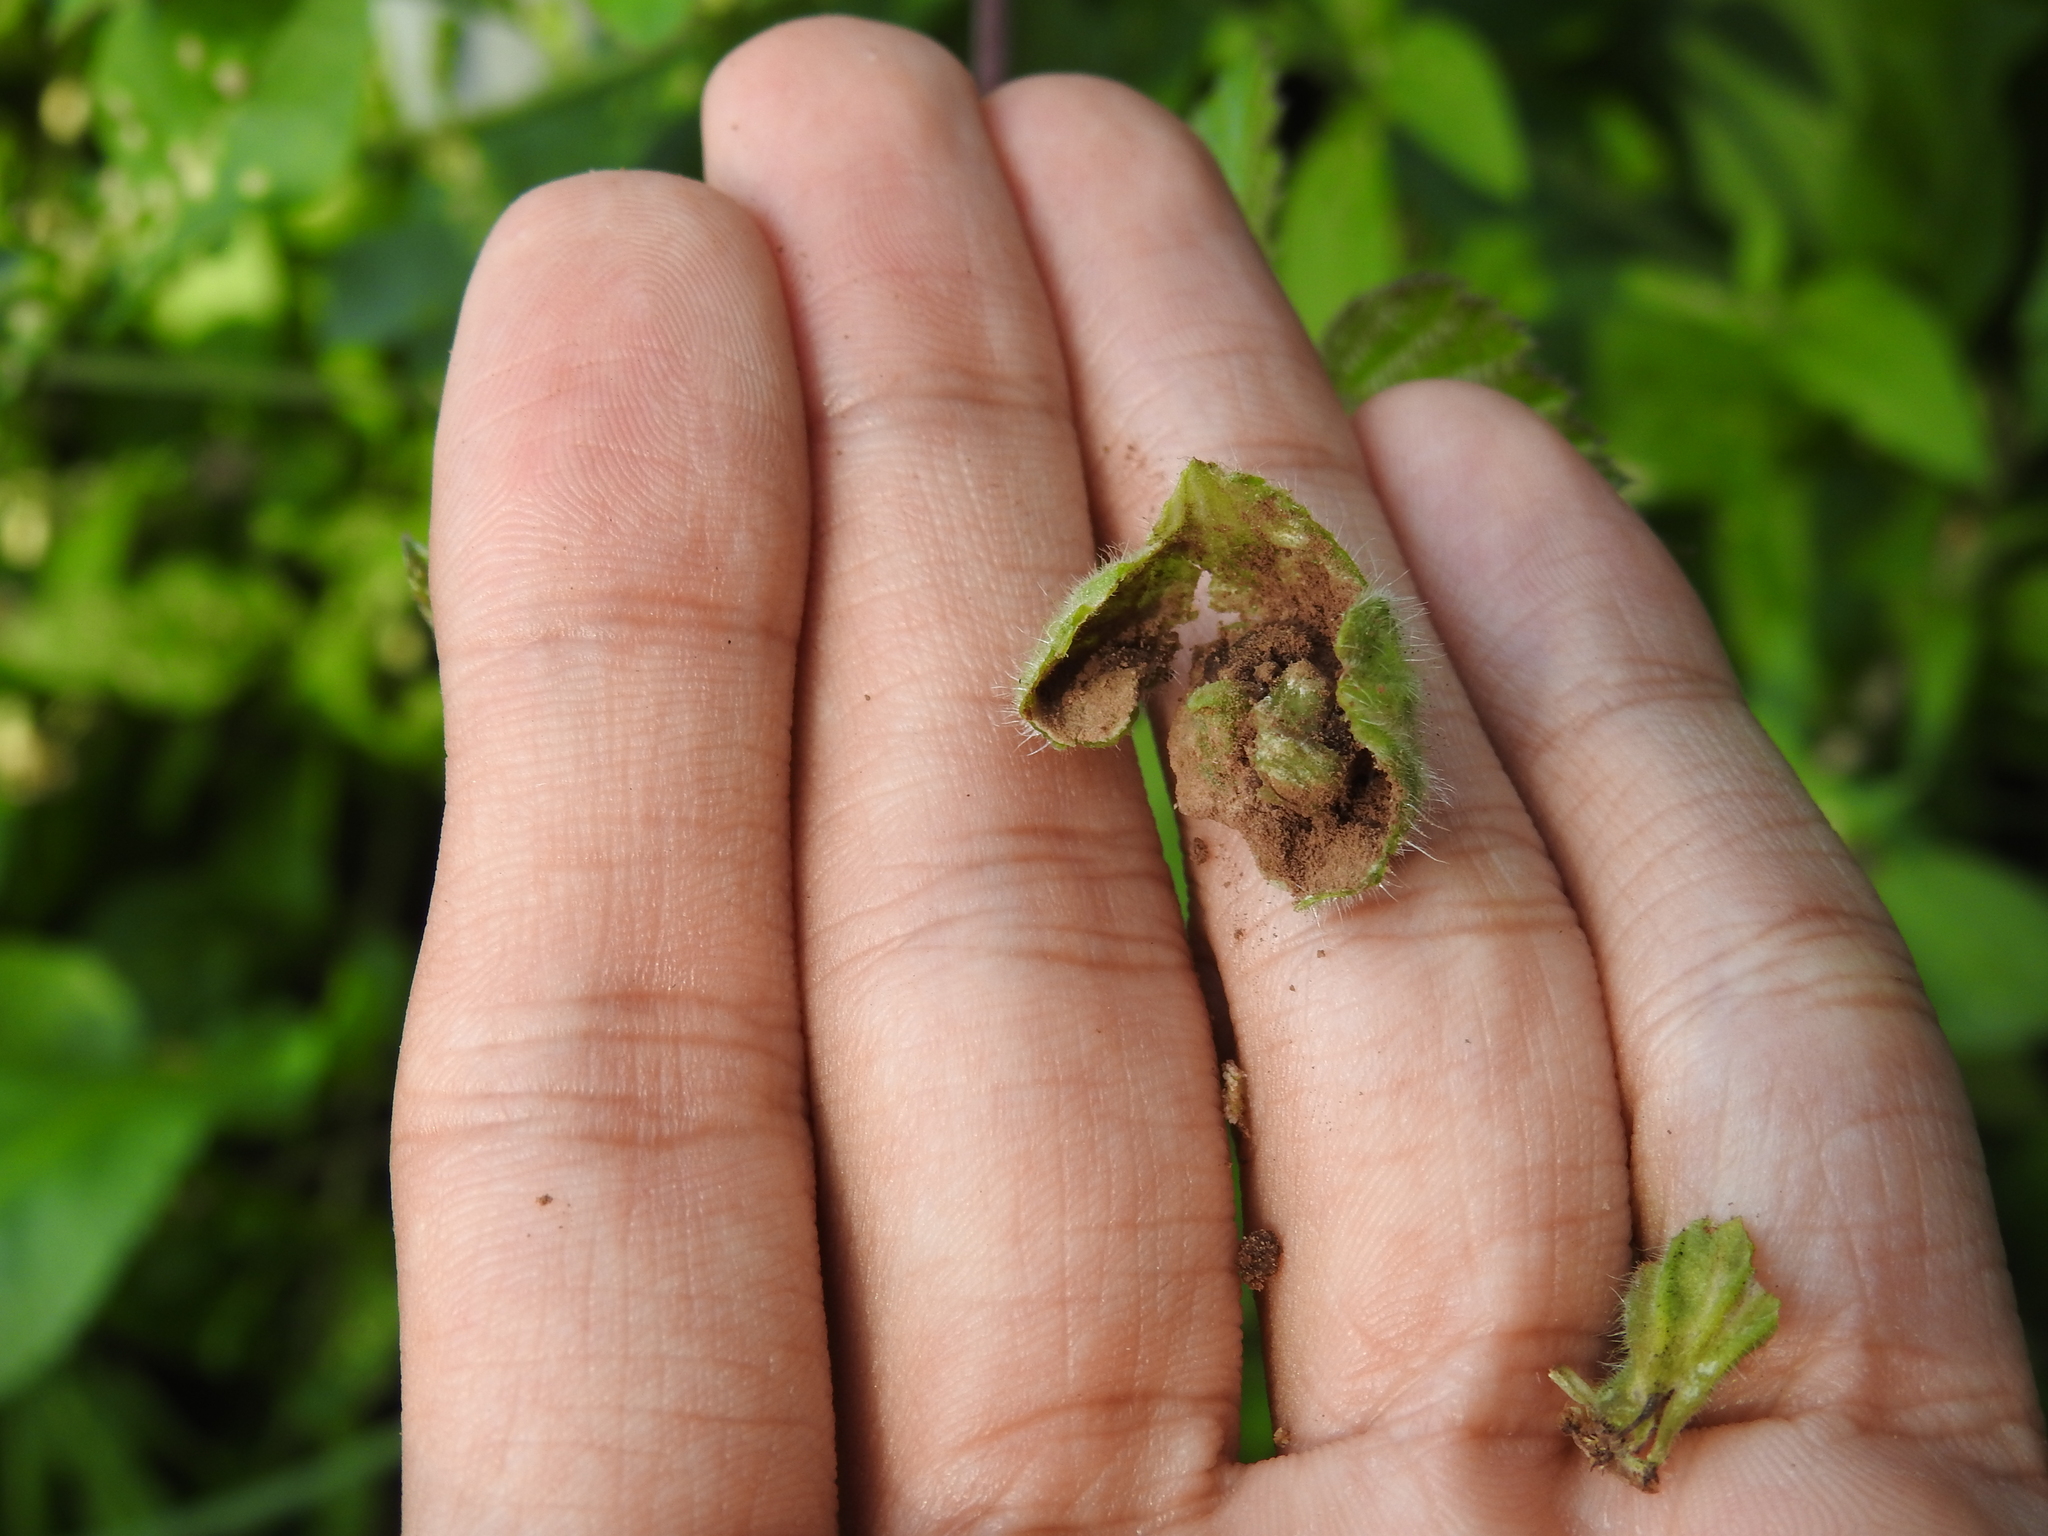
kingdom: Fungi
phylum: Basidiomycota
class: Ustilaginomycetes
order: Urocystidales
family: Glomosporiaceae
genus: Thecaphora
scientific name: Thecaphora melandrii
